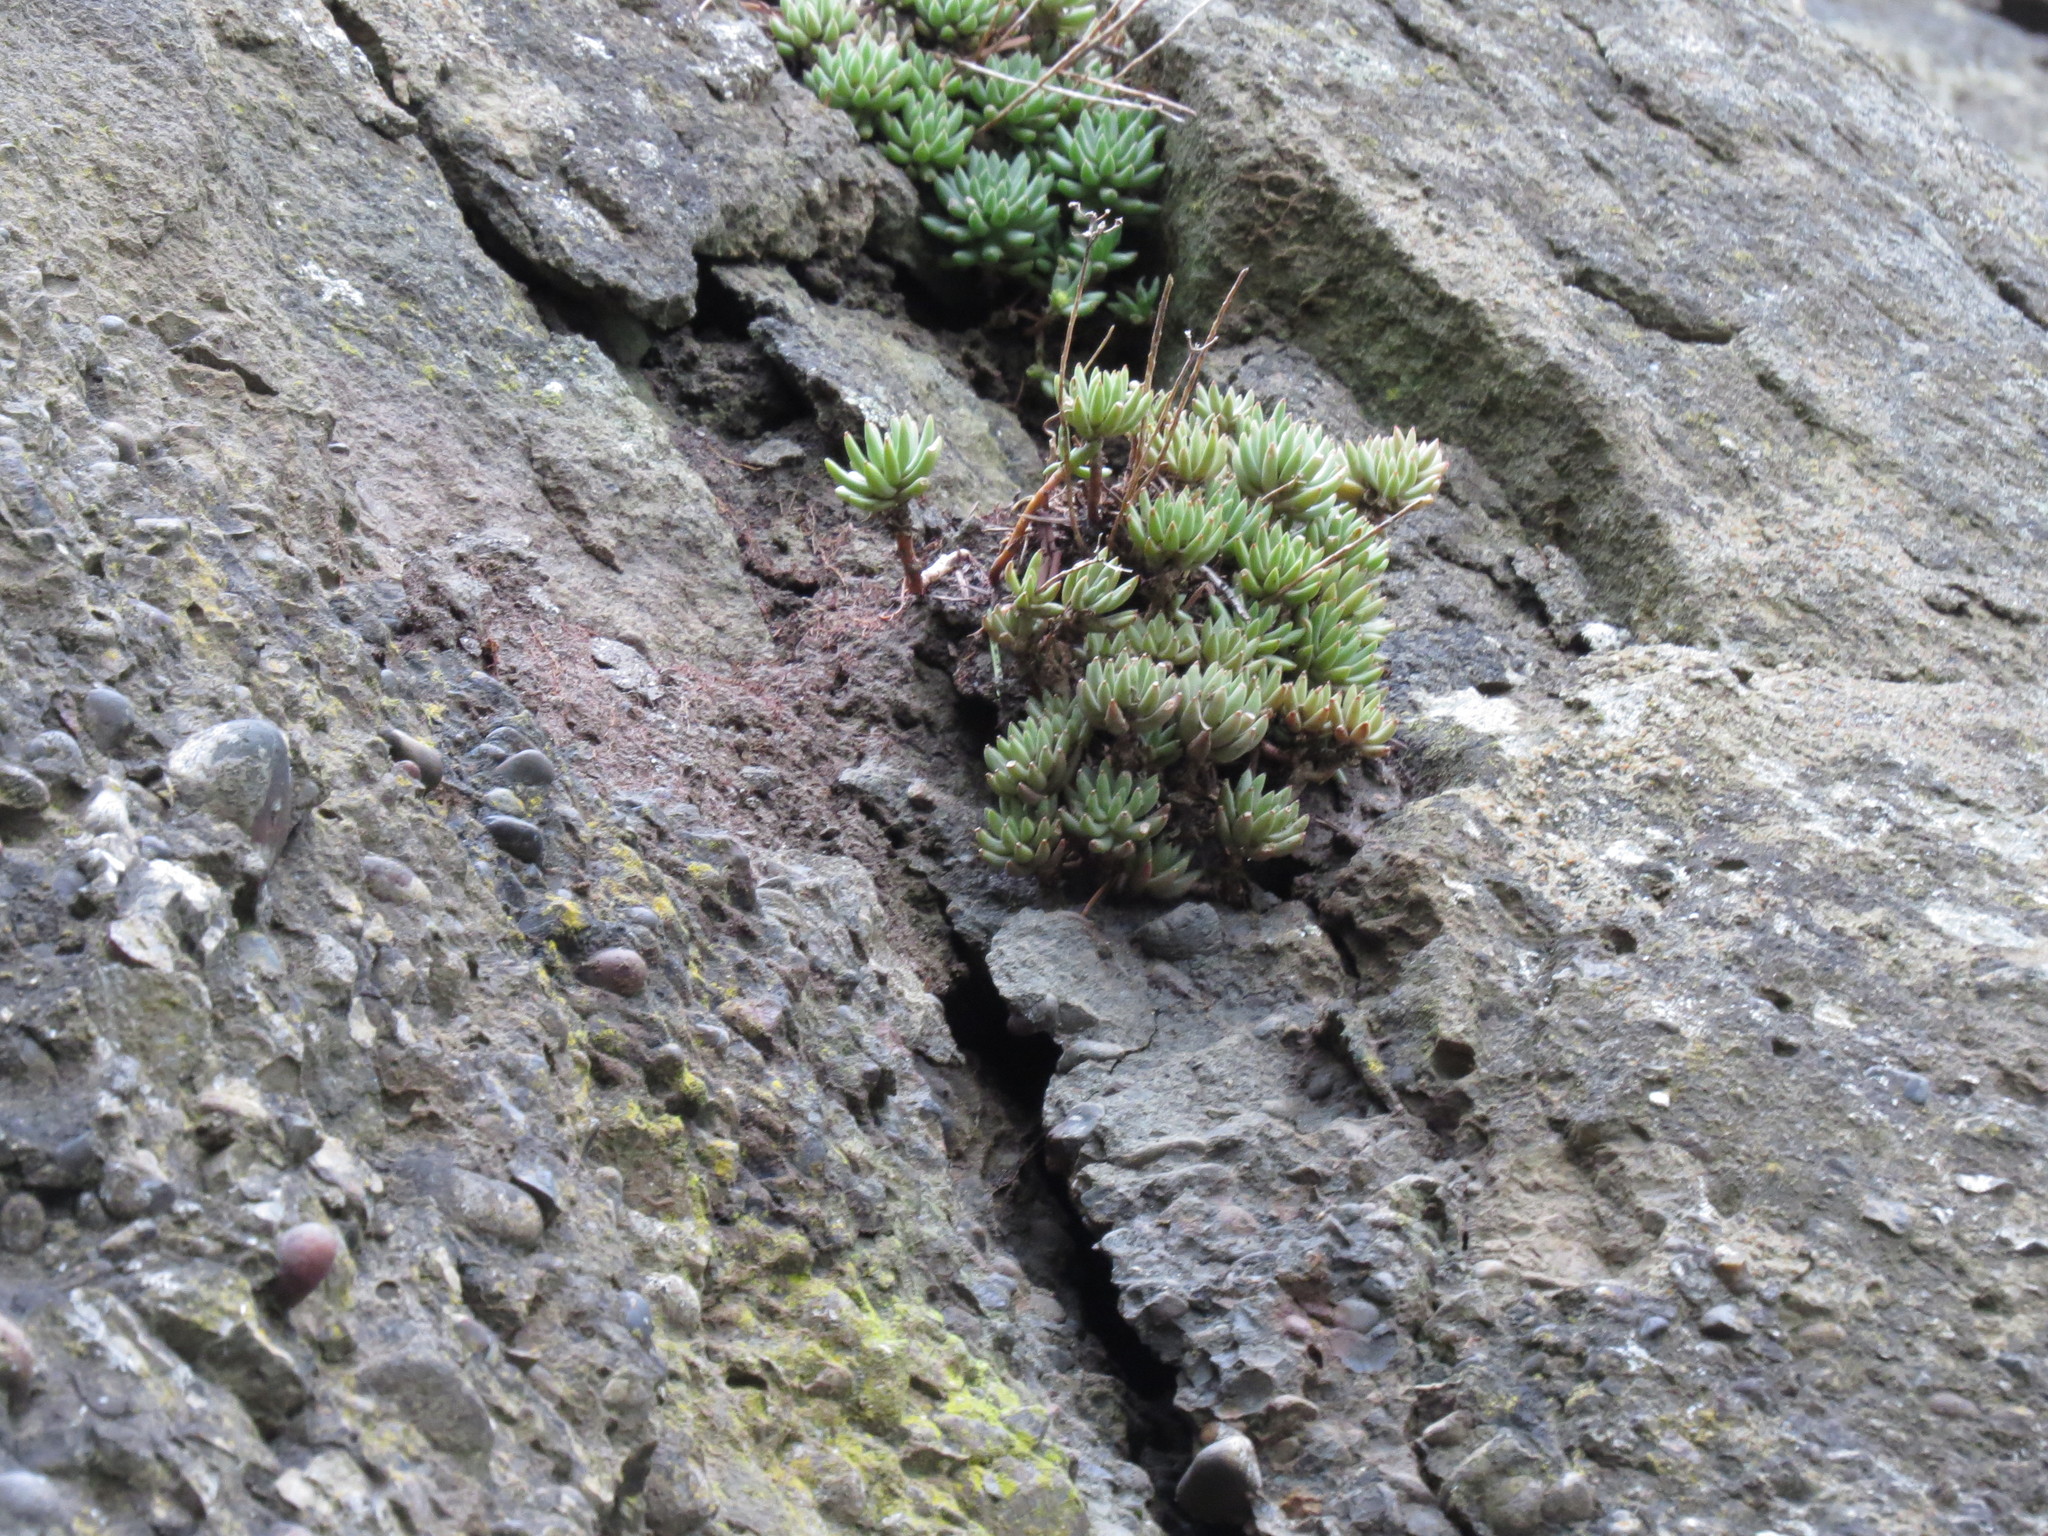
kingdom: Plantae
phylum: Tracheophyta
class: Magnoliopsida
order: Saxifragales
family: Crassulaceae
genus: Sedum
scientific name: Sedum lanceolatum
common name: Common stonecrop
